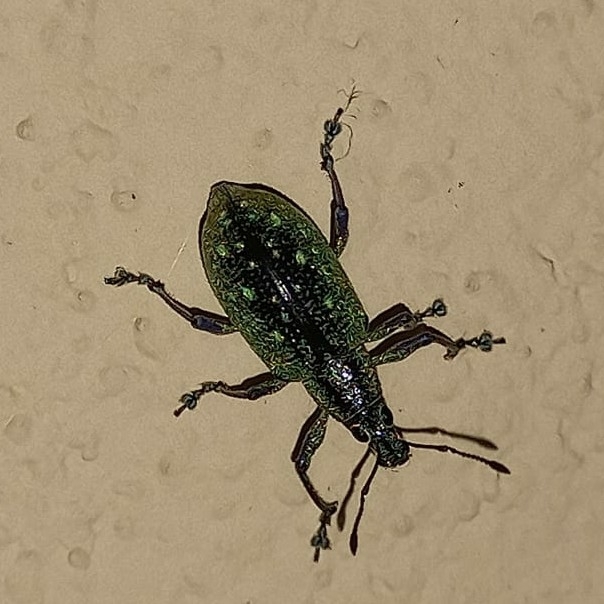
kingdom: Animalia
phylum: Arthropoda
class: Insecta
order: Coleoptera
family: Curculionidae
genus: Exophthalmus
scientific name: Exophthalmus jekelianus
